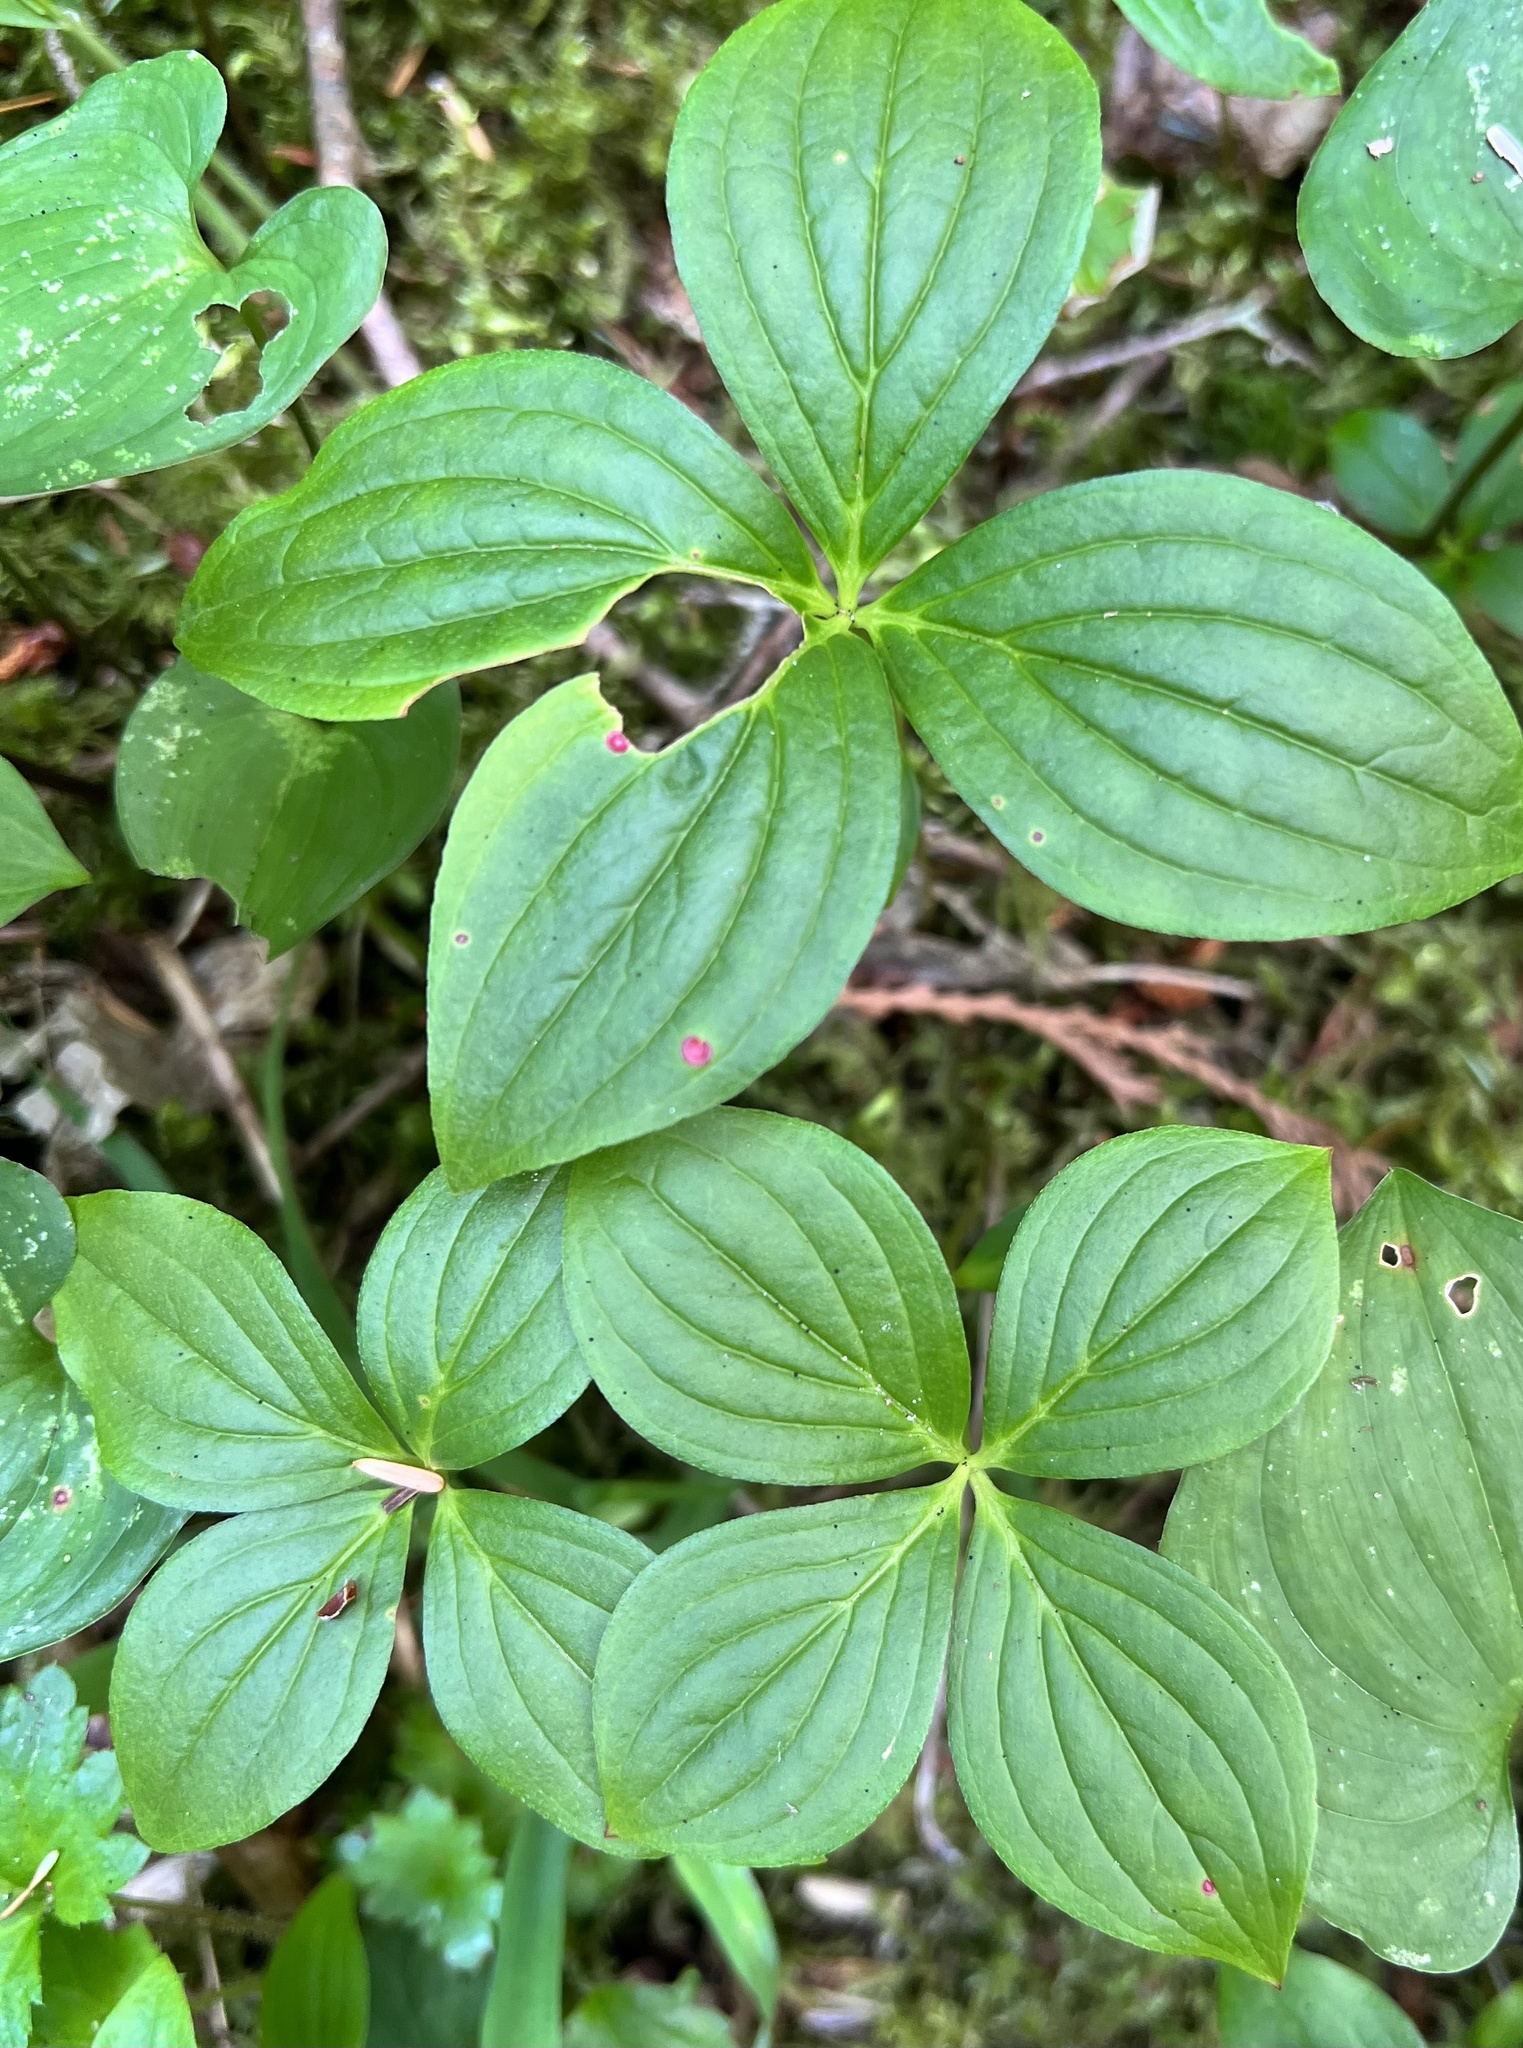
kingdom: Plantae
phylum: Tracheophyta
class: Magnoliopsida
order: Cornales
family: Cornaceae
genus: Cornus
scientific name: Cornus unalaschkensis
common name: Alaska bunchberry
